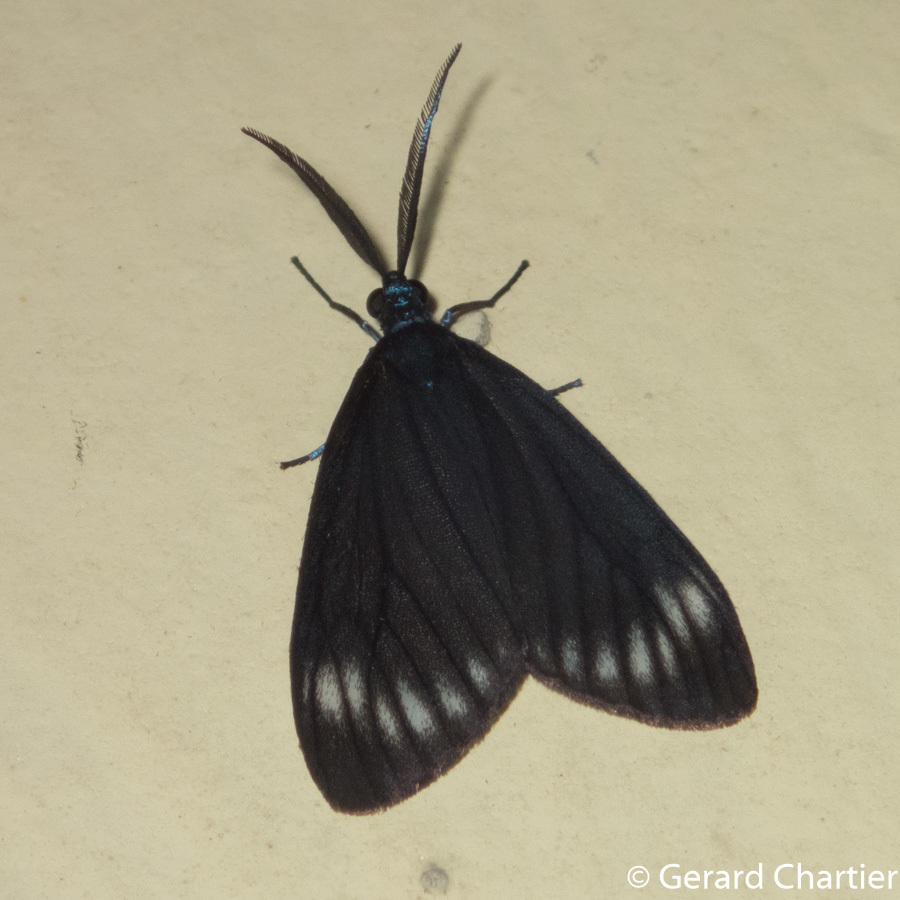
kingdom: Animalia
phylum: Arthropoda
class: Insecta
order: Lepidoptera
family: Zygaenidae
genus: Cyclosia
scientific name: Cyclosia panthona
